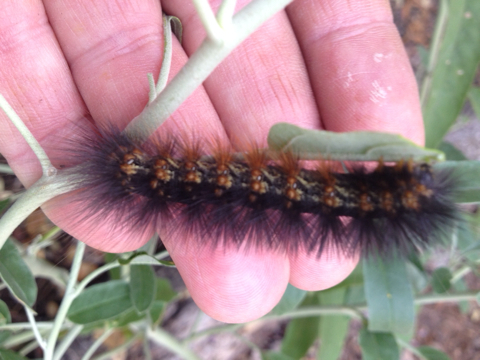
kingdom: Animalia
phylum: Arthropoda
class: Insecta
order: Lepidoptera
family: Erebidae
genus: Estigmene
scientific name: Estigmene acrea
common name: Salt marsh moth
